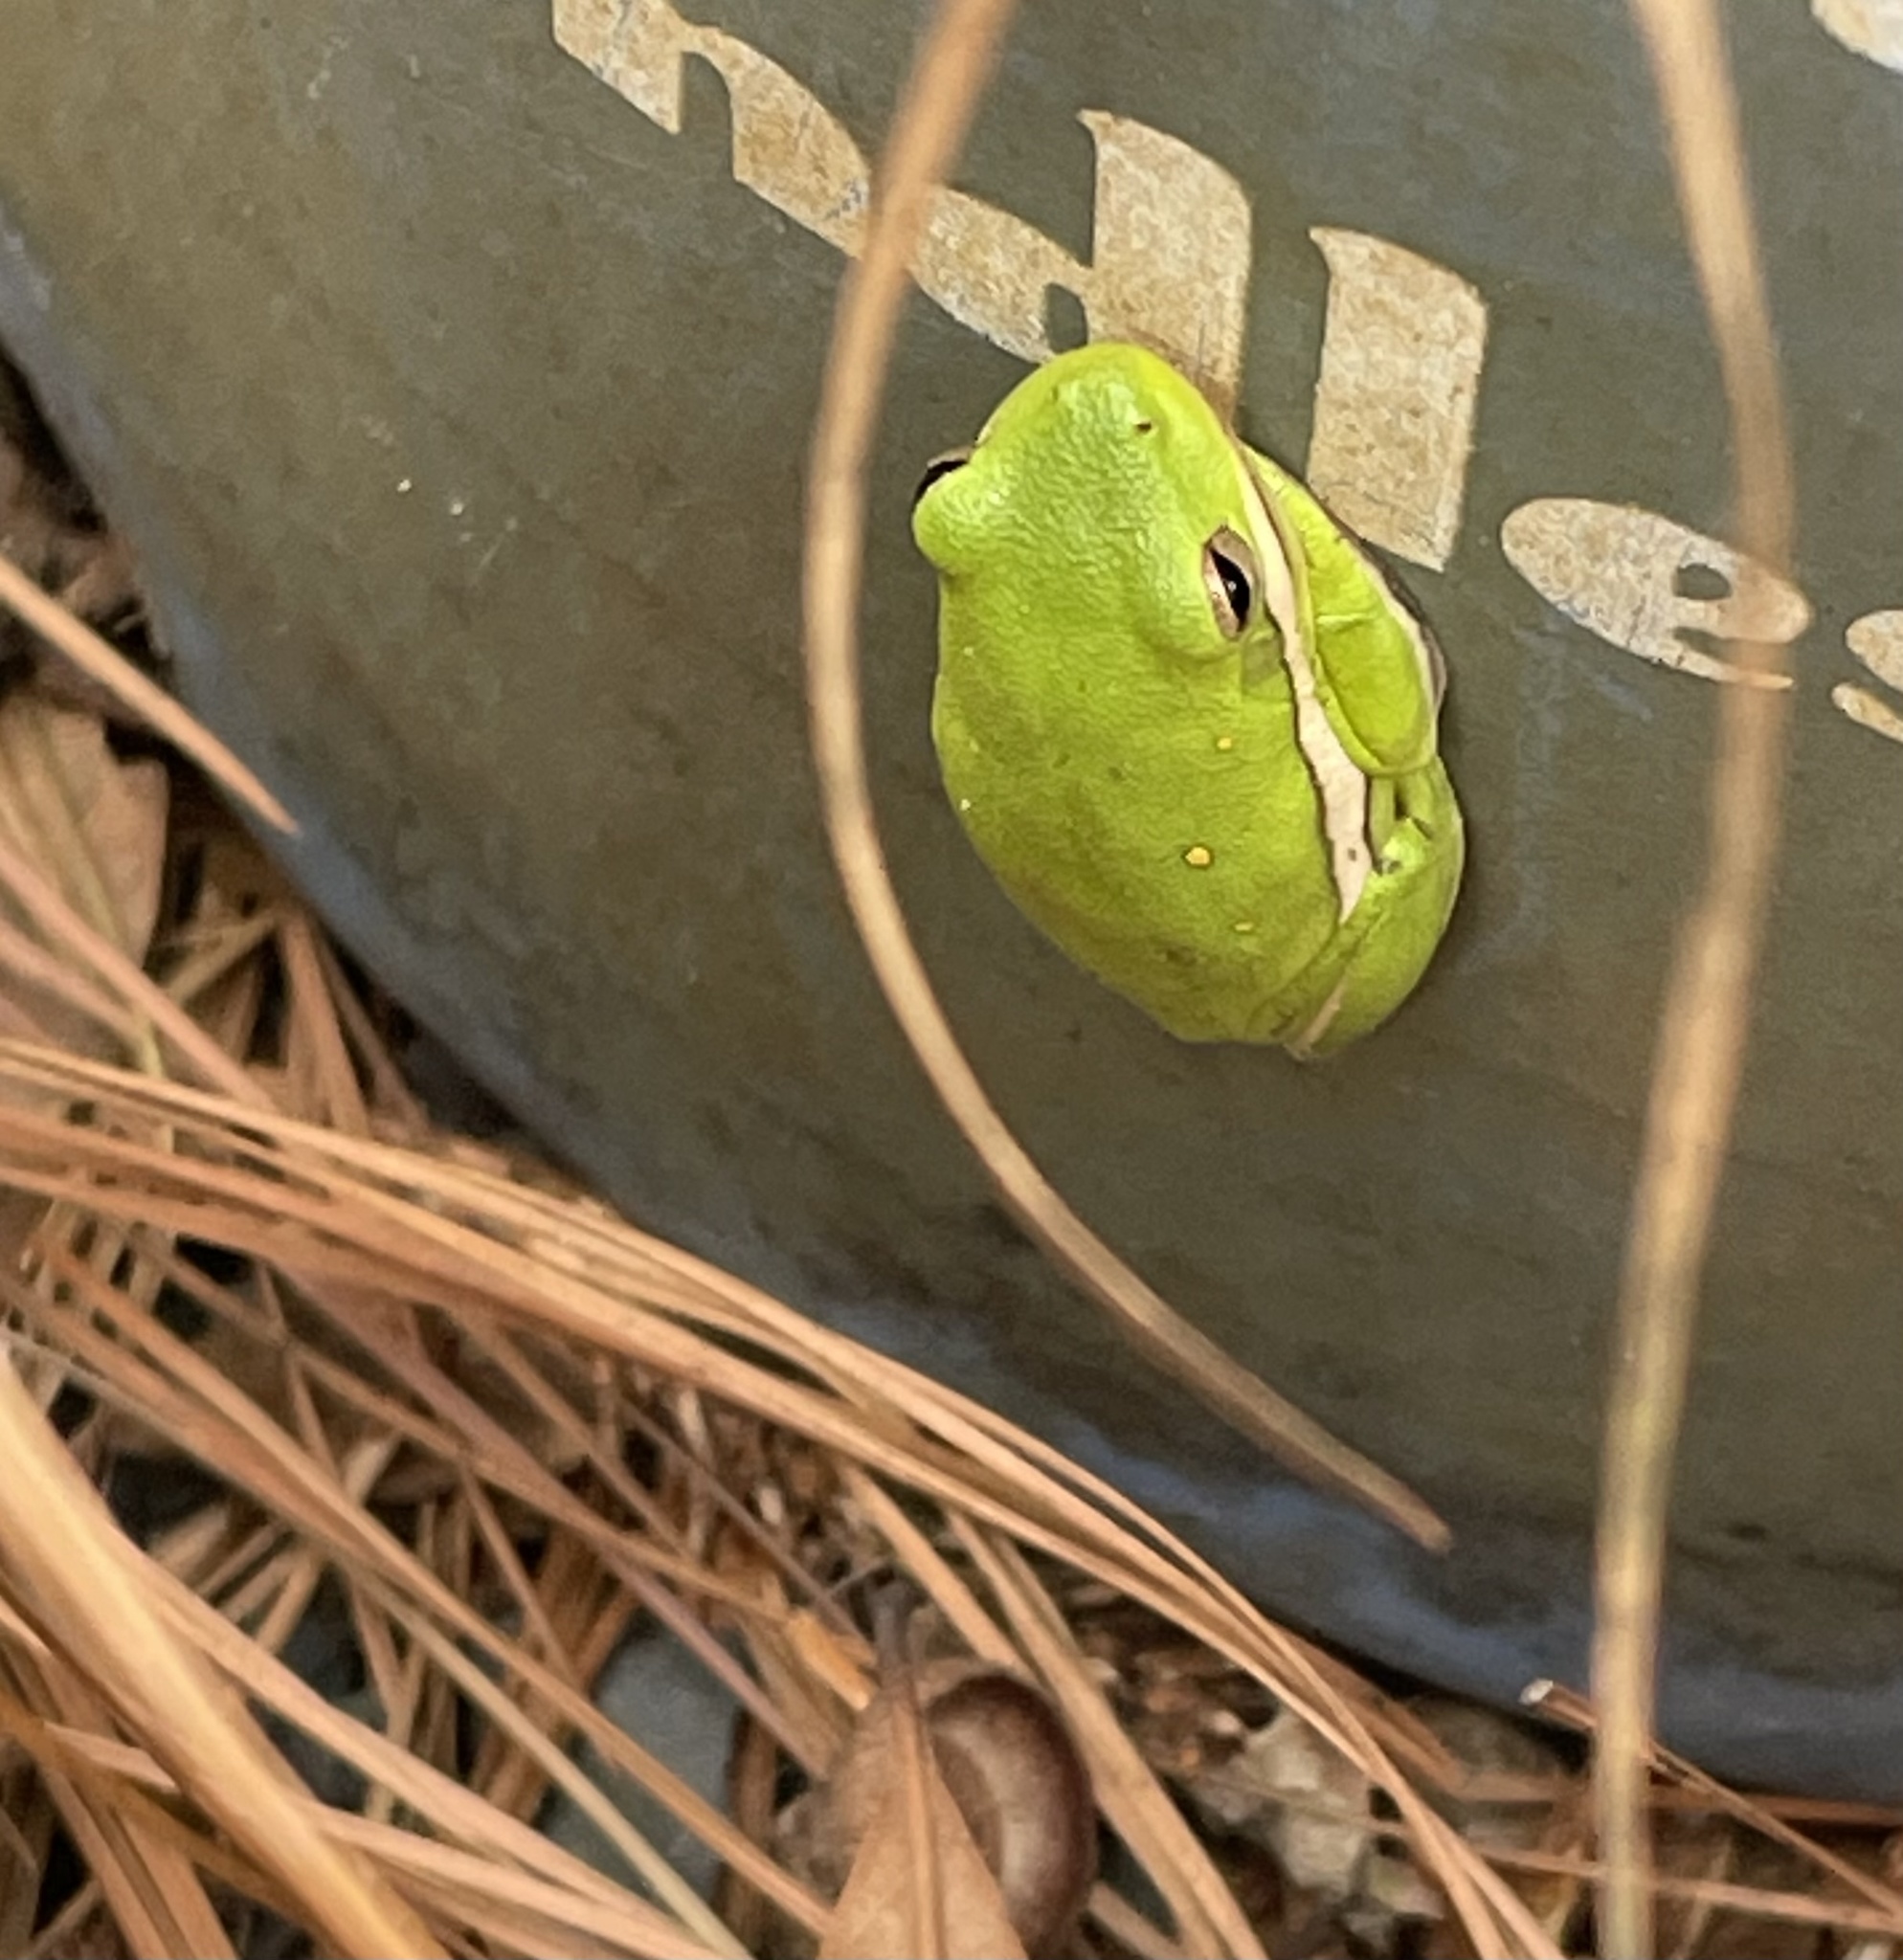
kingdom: Animalia
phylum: Chordata
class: Amphibia
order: Anura
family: Hylidae
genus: Dryophytes
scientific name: Dryophytes cinereus
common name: Green treefrog
